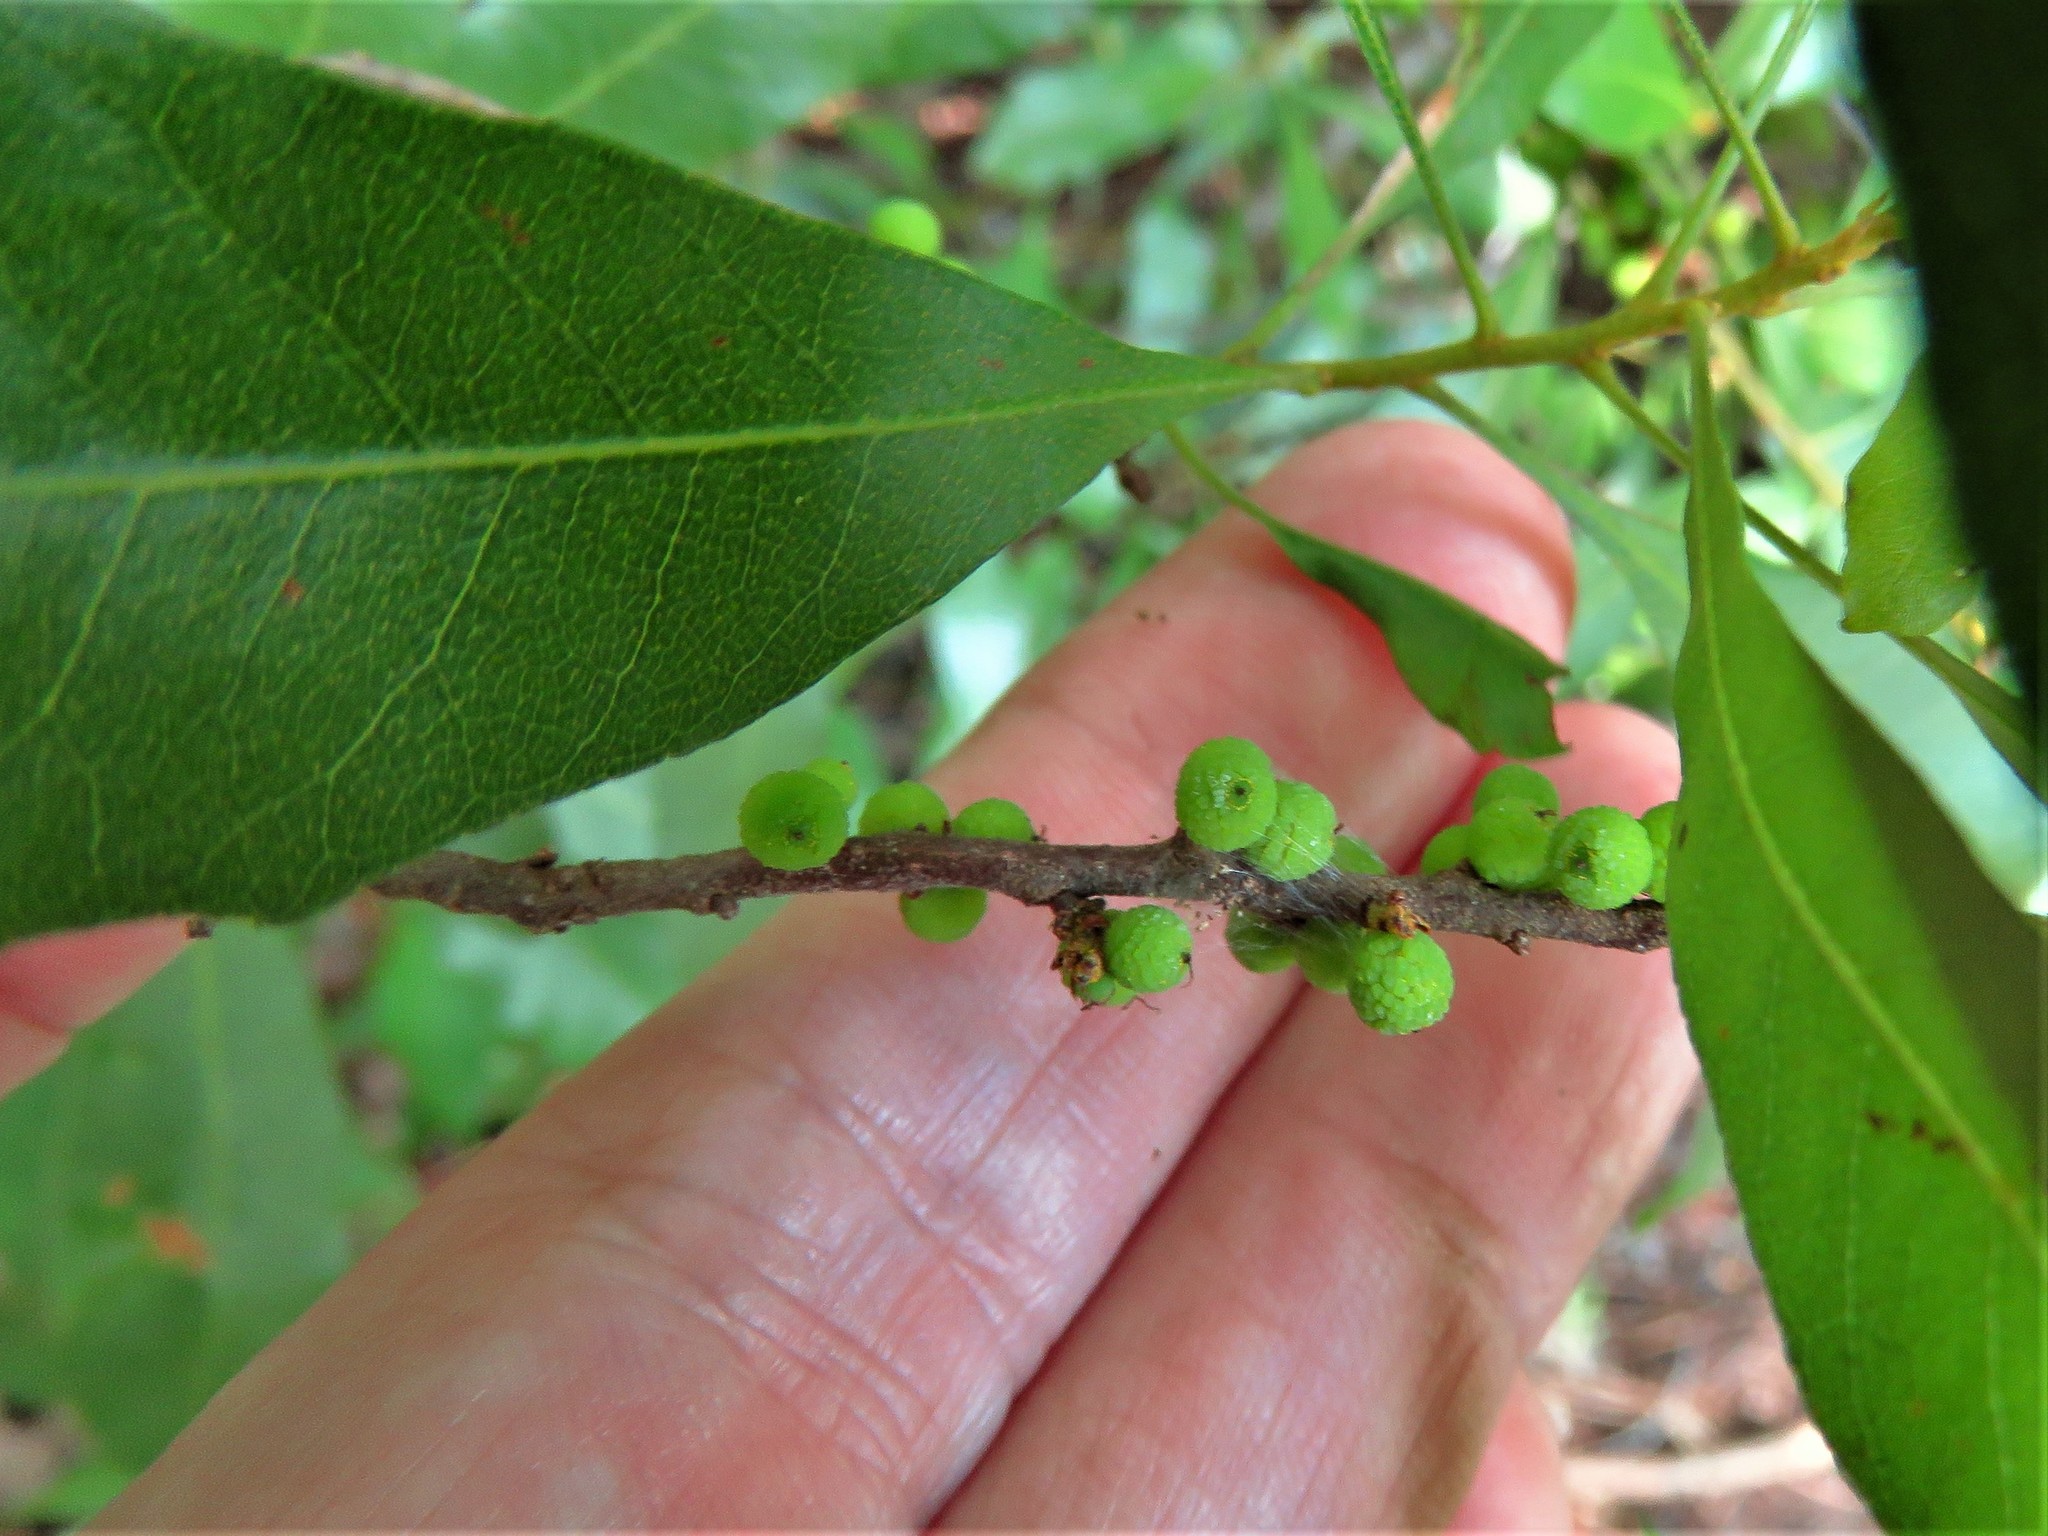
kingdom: Plantae
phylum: Tracheophyta
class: Magnoliopsida
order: Fagales
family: Myricaceae
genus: Morella
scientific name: Morella cerifera
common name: Wax myrtle
